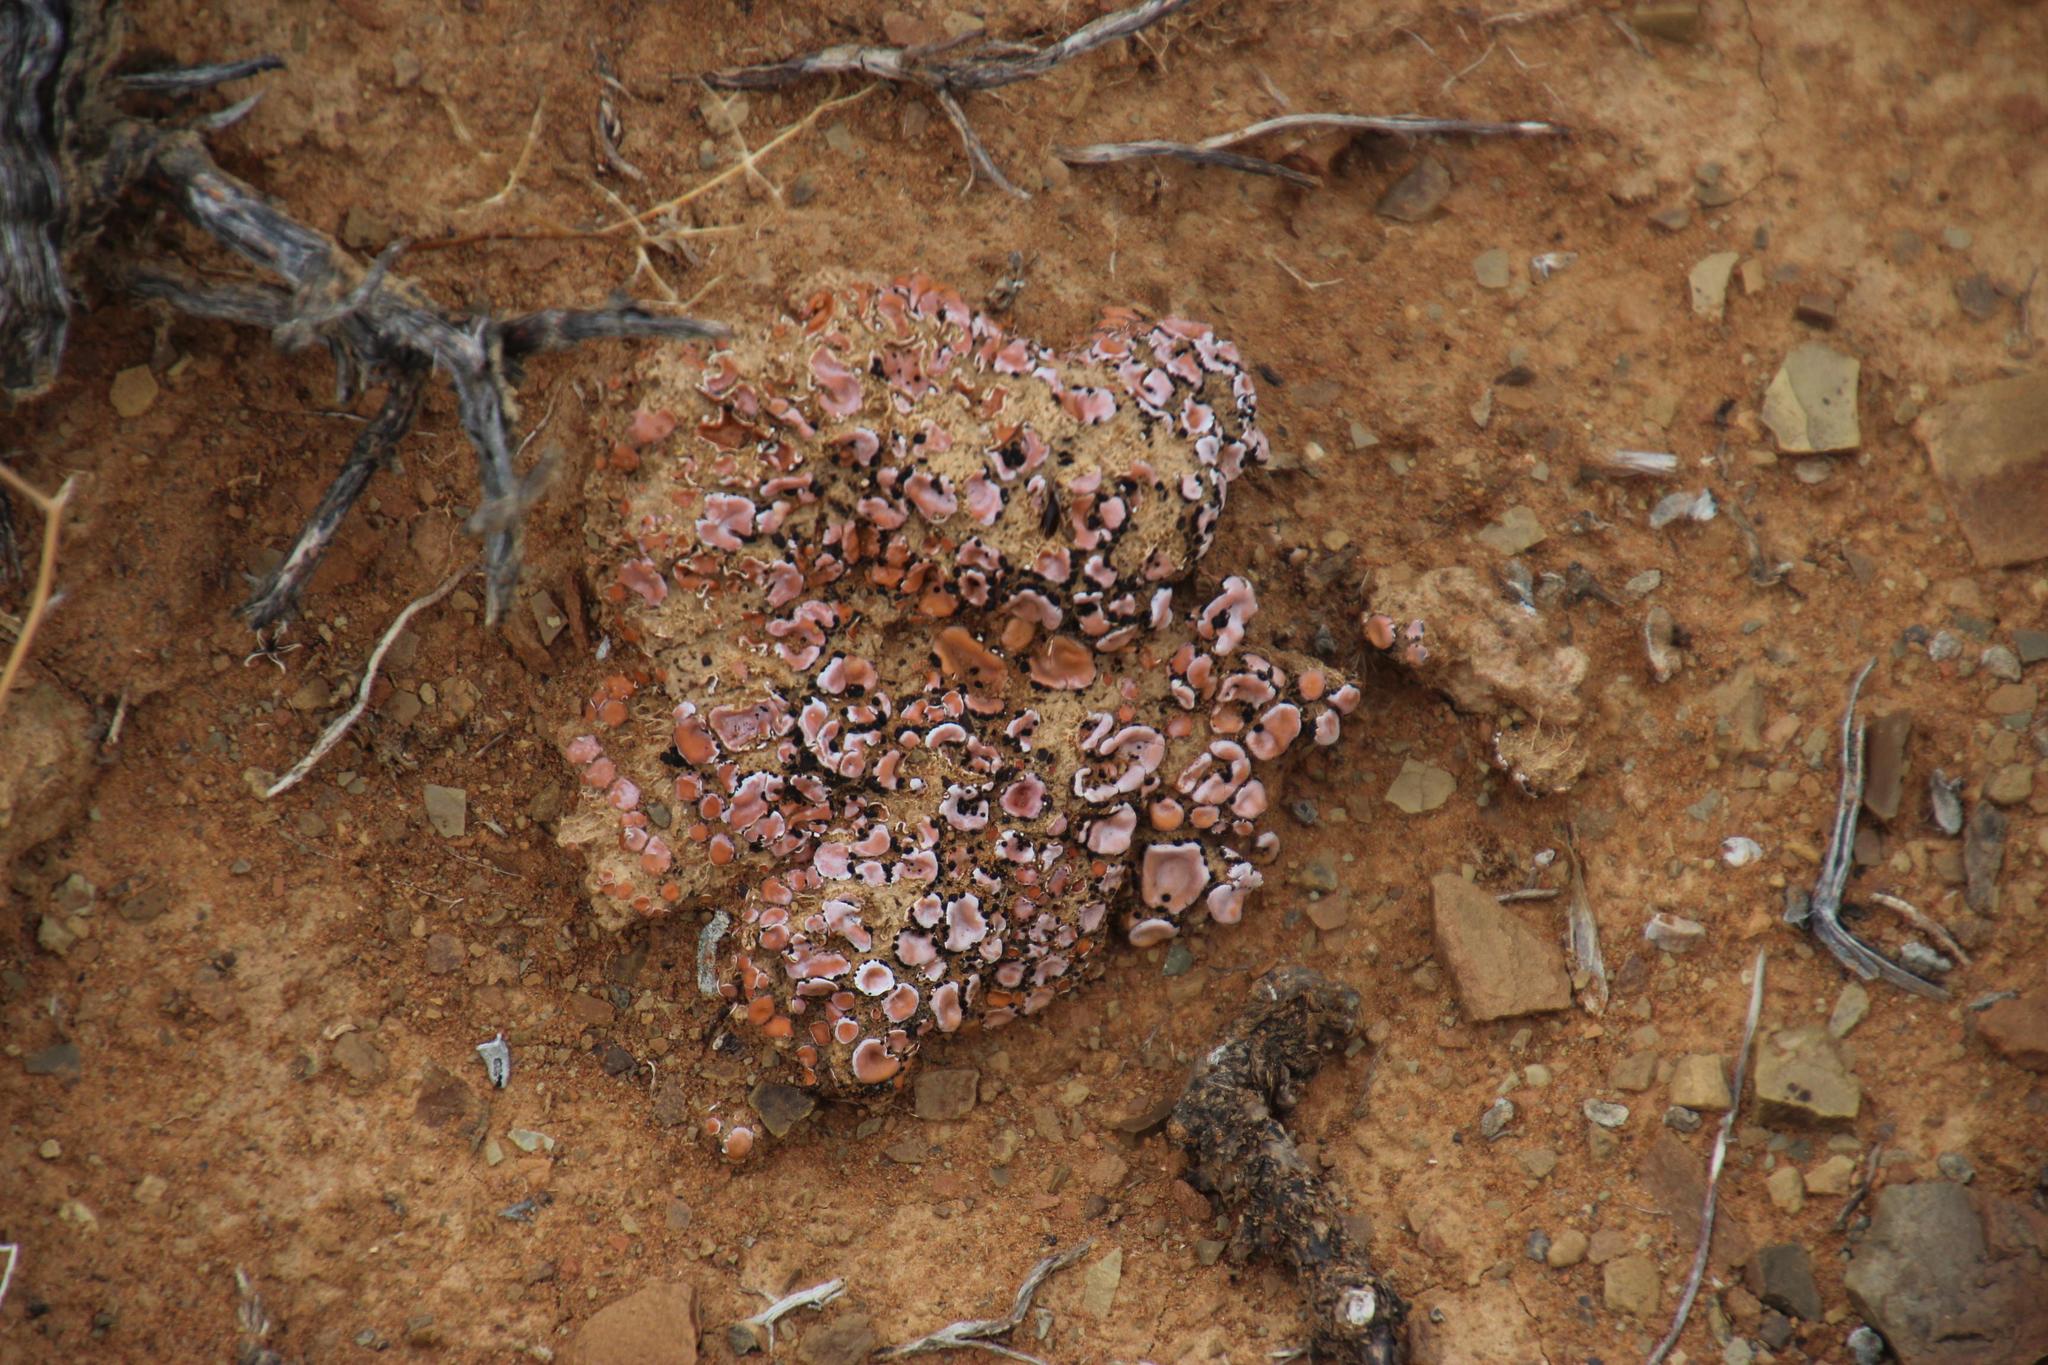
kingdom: Fungi
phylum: Ascomycota
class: Lecanoromycetes
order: Lecanorales
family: Psoraceae
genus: Psora
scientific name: Psora crenata
